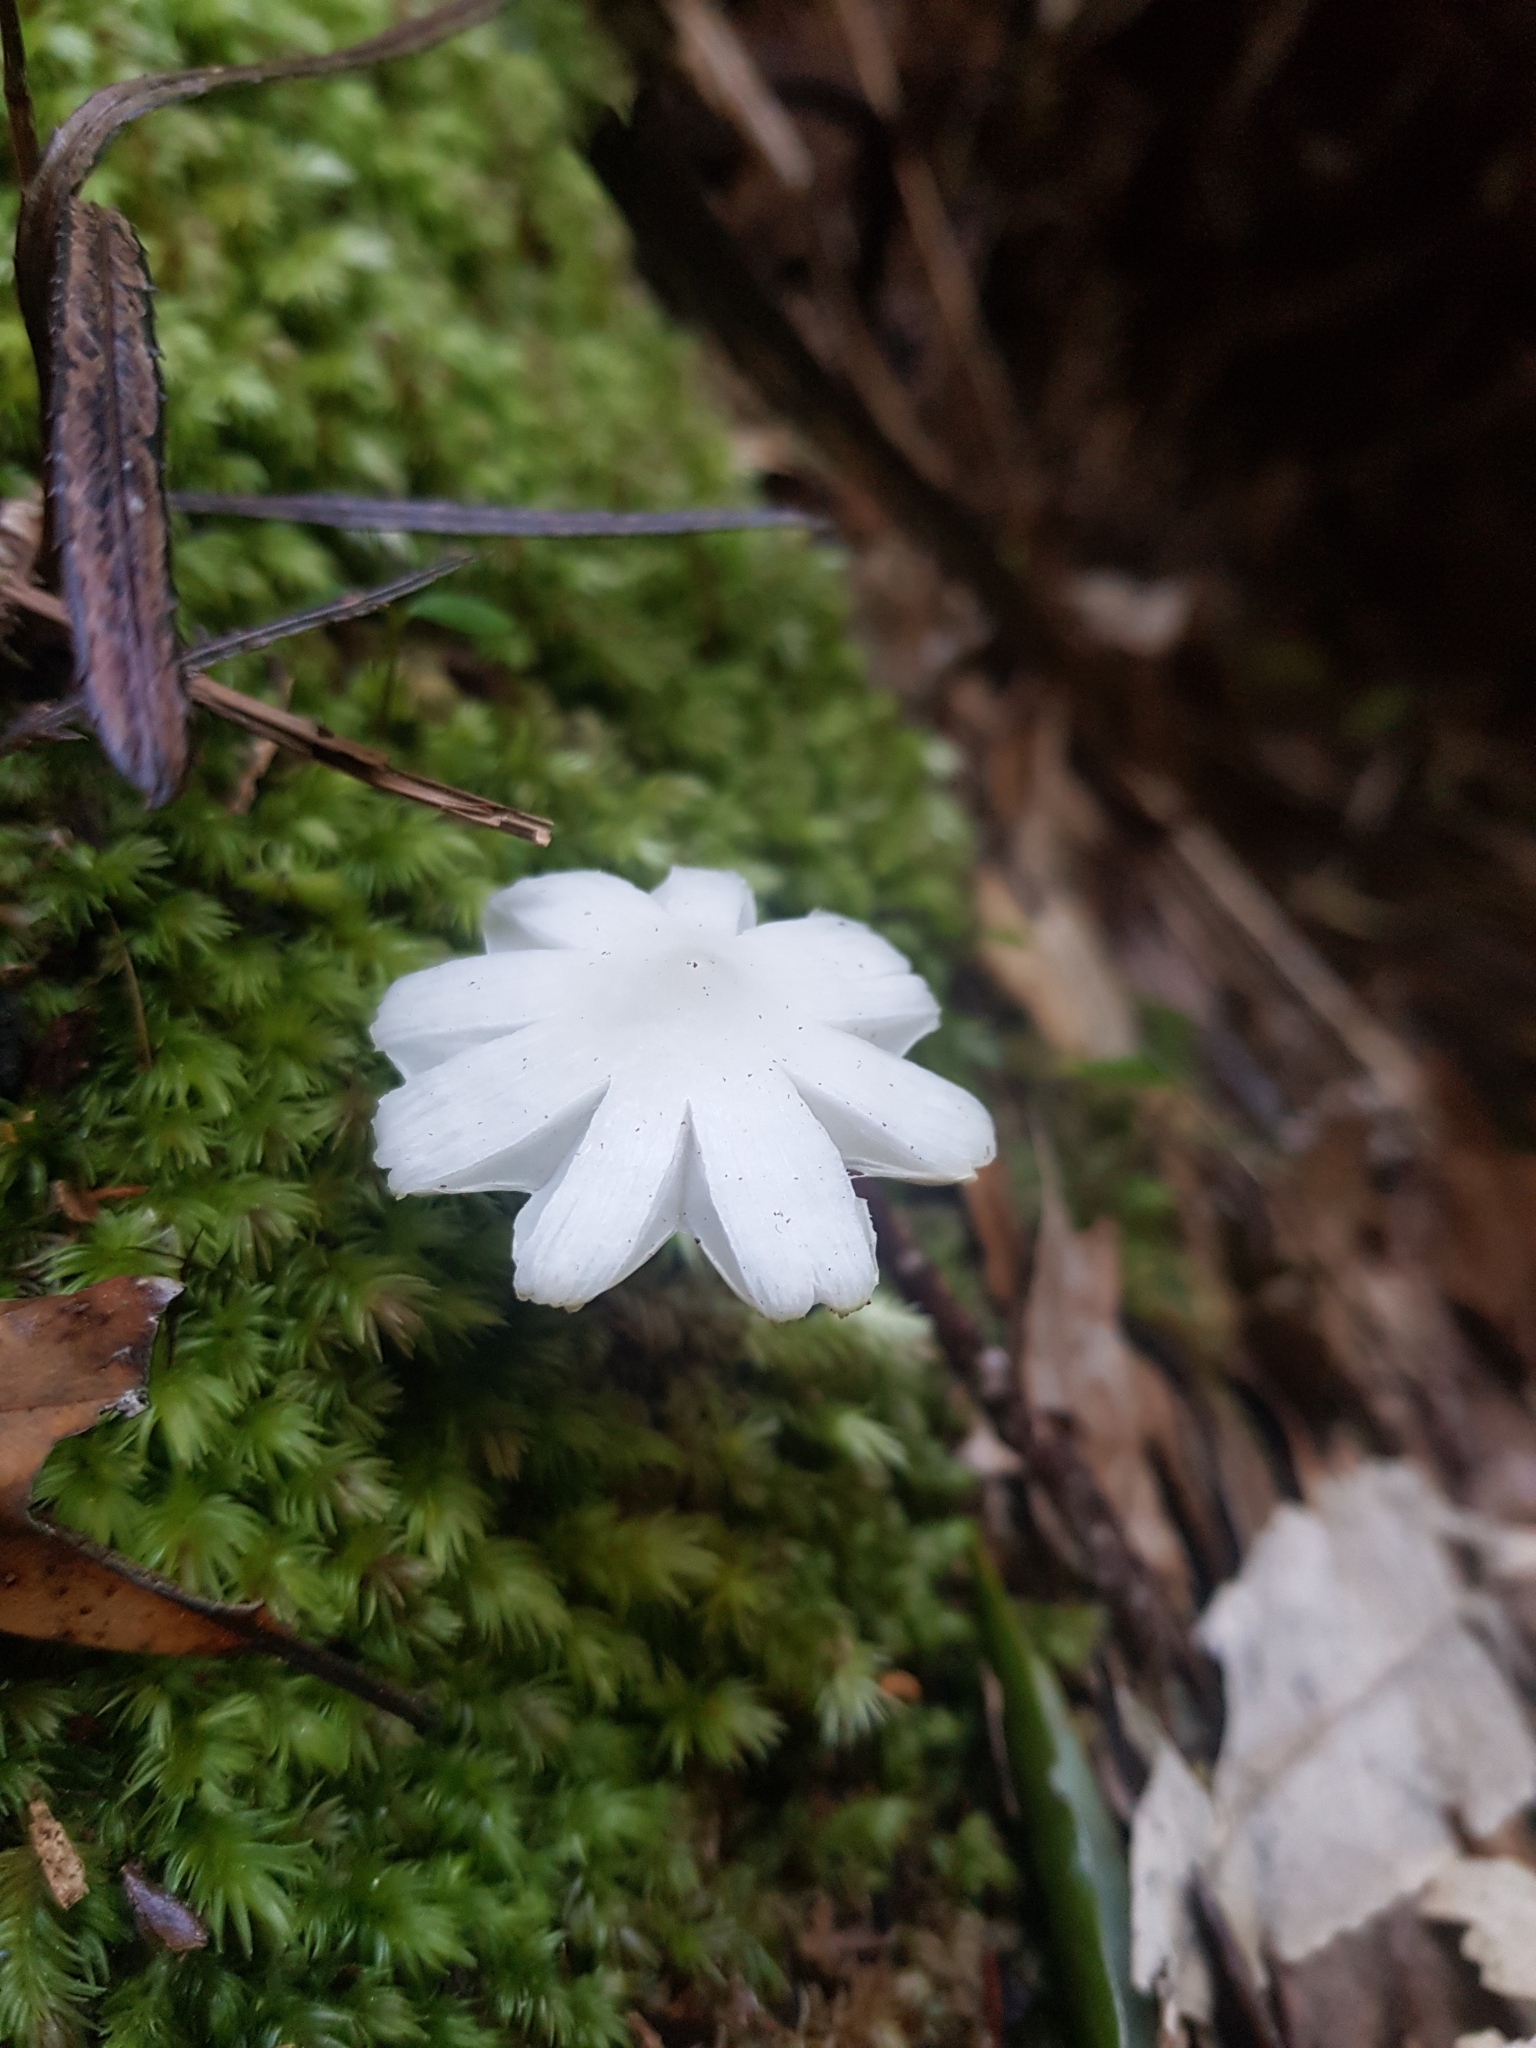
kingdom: Fungi
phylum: Basidiomycota
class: Agaricomycetes
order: Agaricales
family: Hygrophoraceae
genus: Humidicutis
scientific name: Humidicutis mavis
